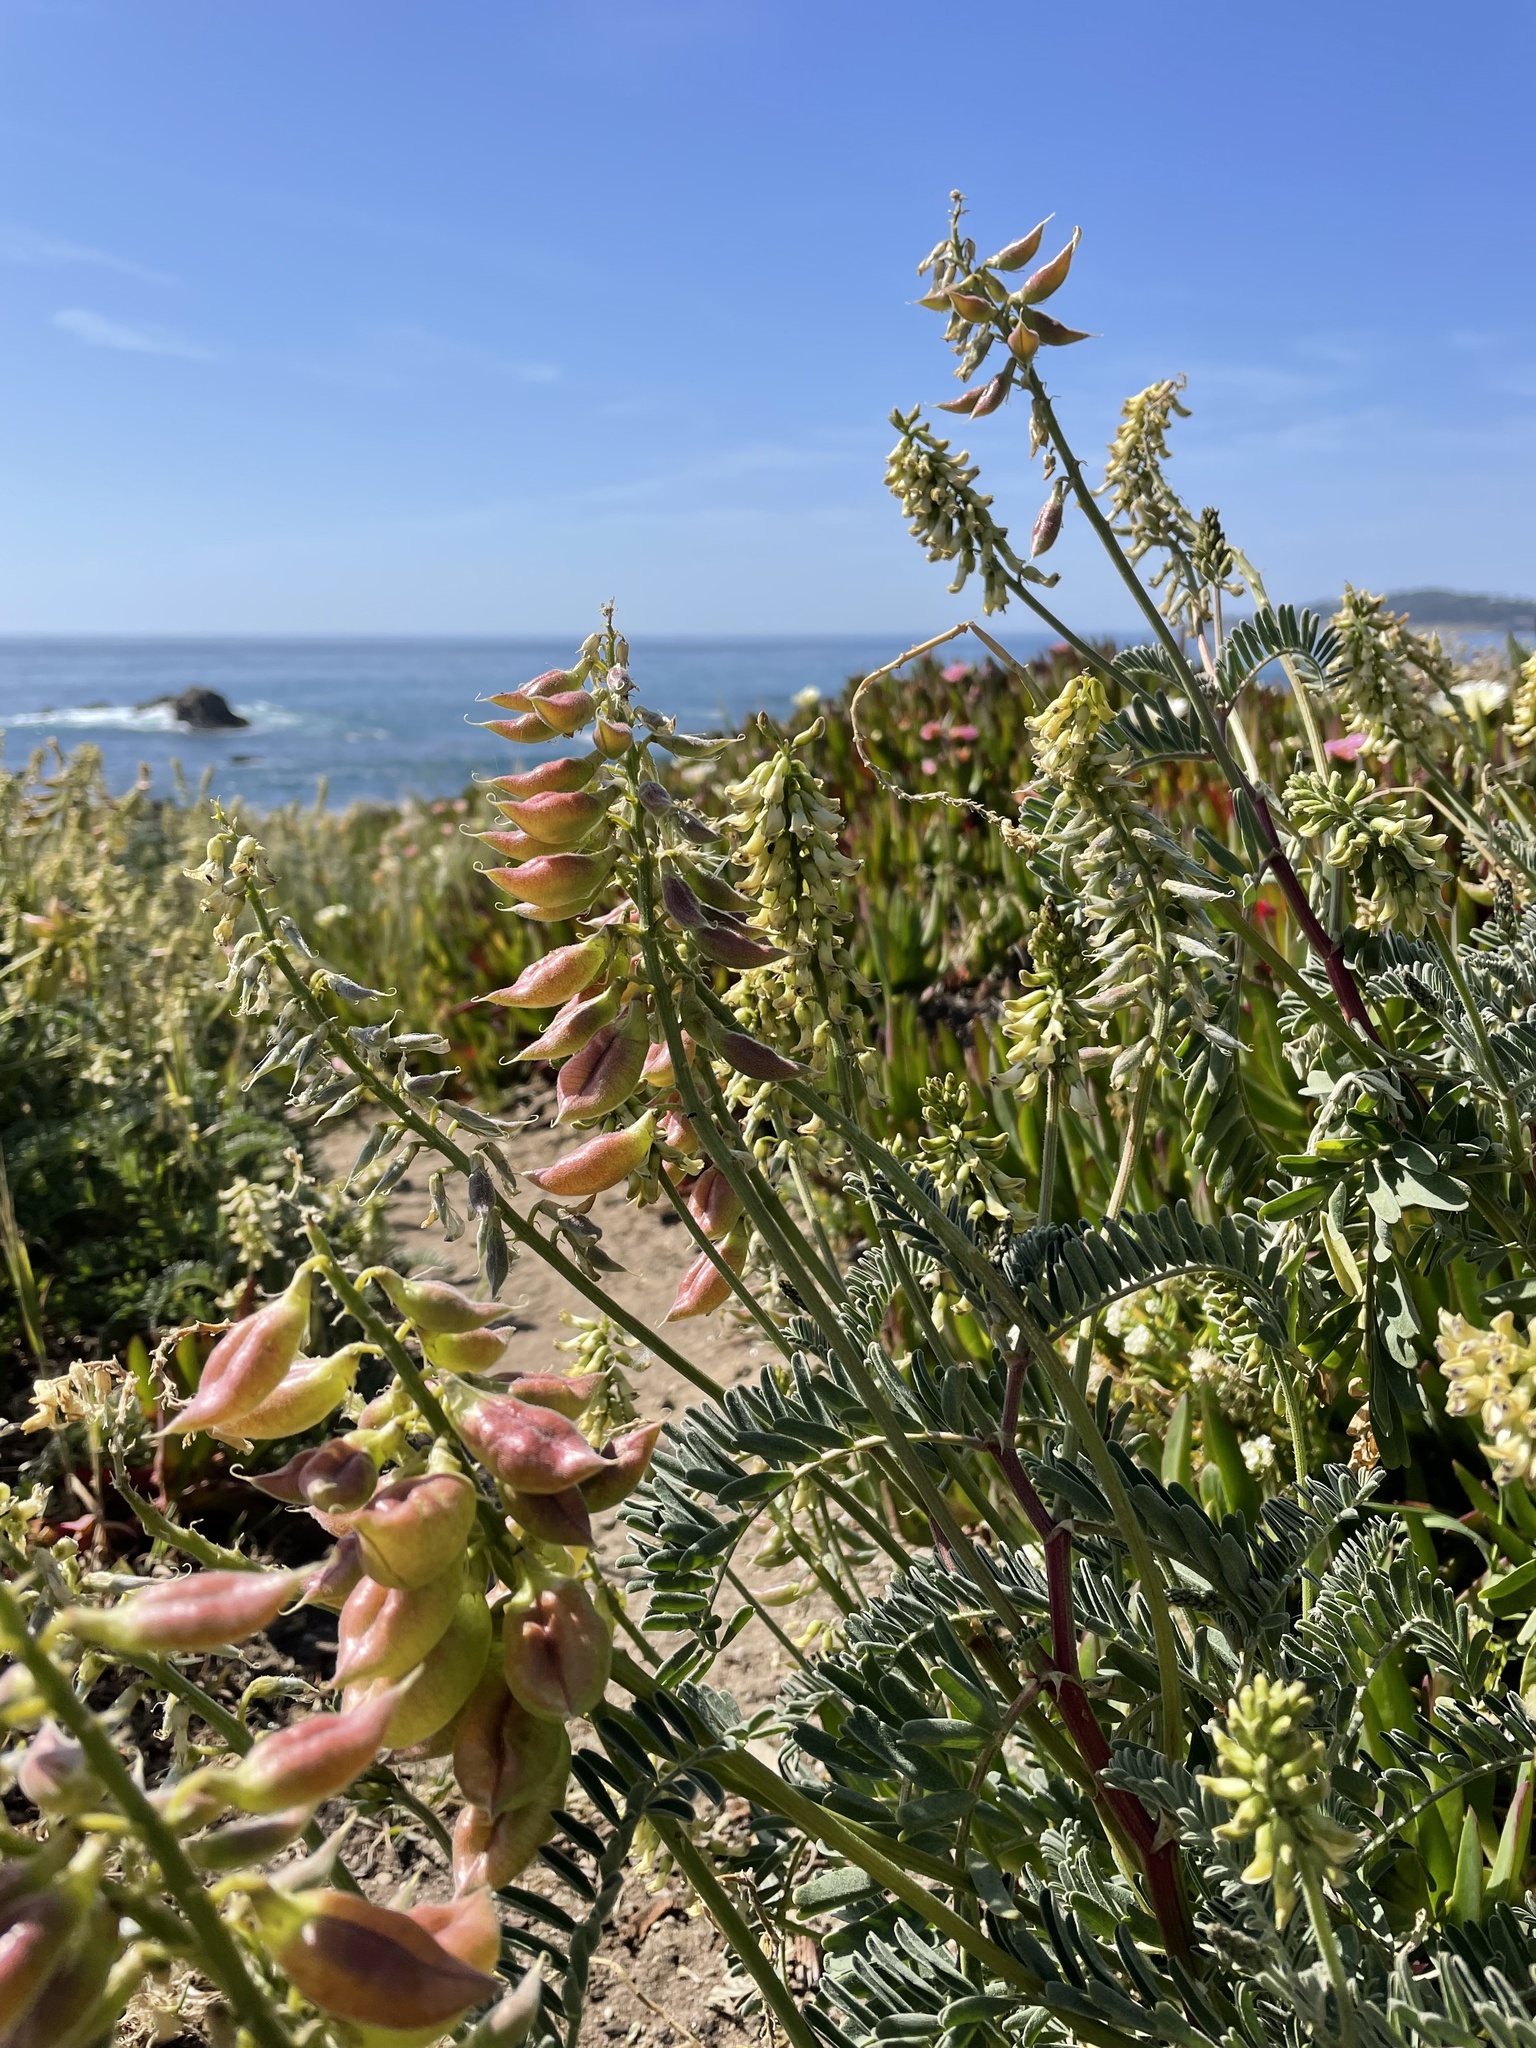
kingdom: Plantae
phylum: Tracheophyta
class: Magnoliopsida
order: Fabales
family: Fabaceae
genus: Astragalus
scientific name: Astragalus nuttallii
